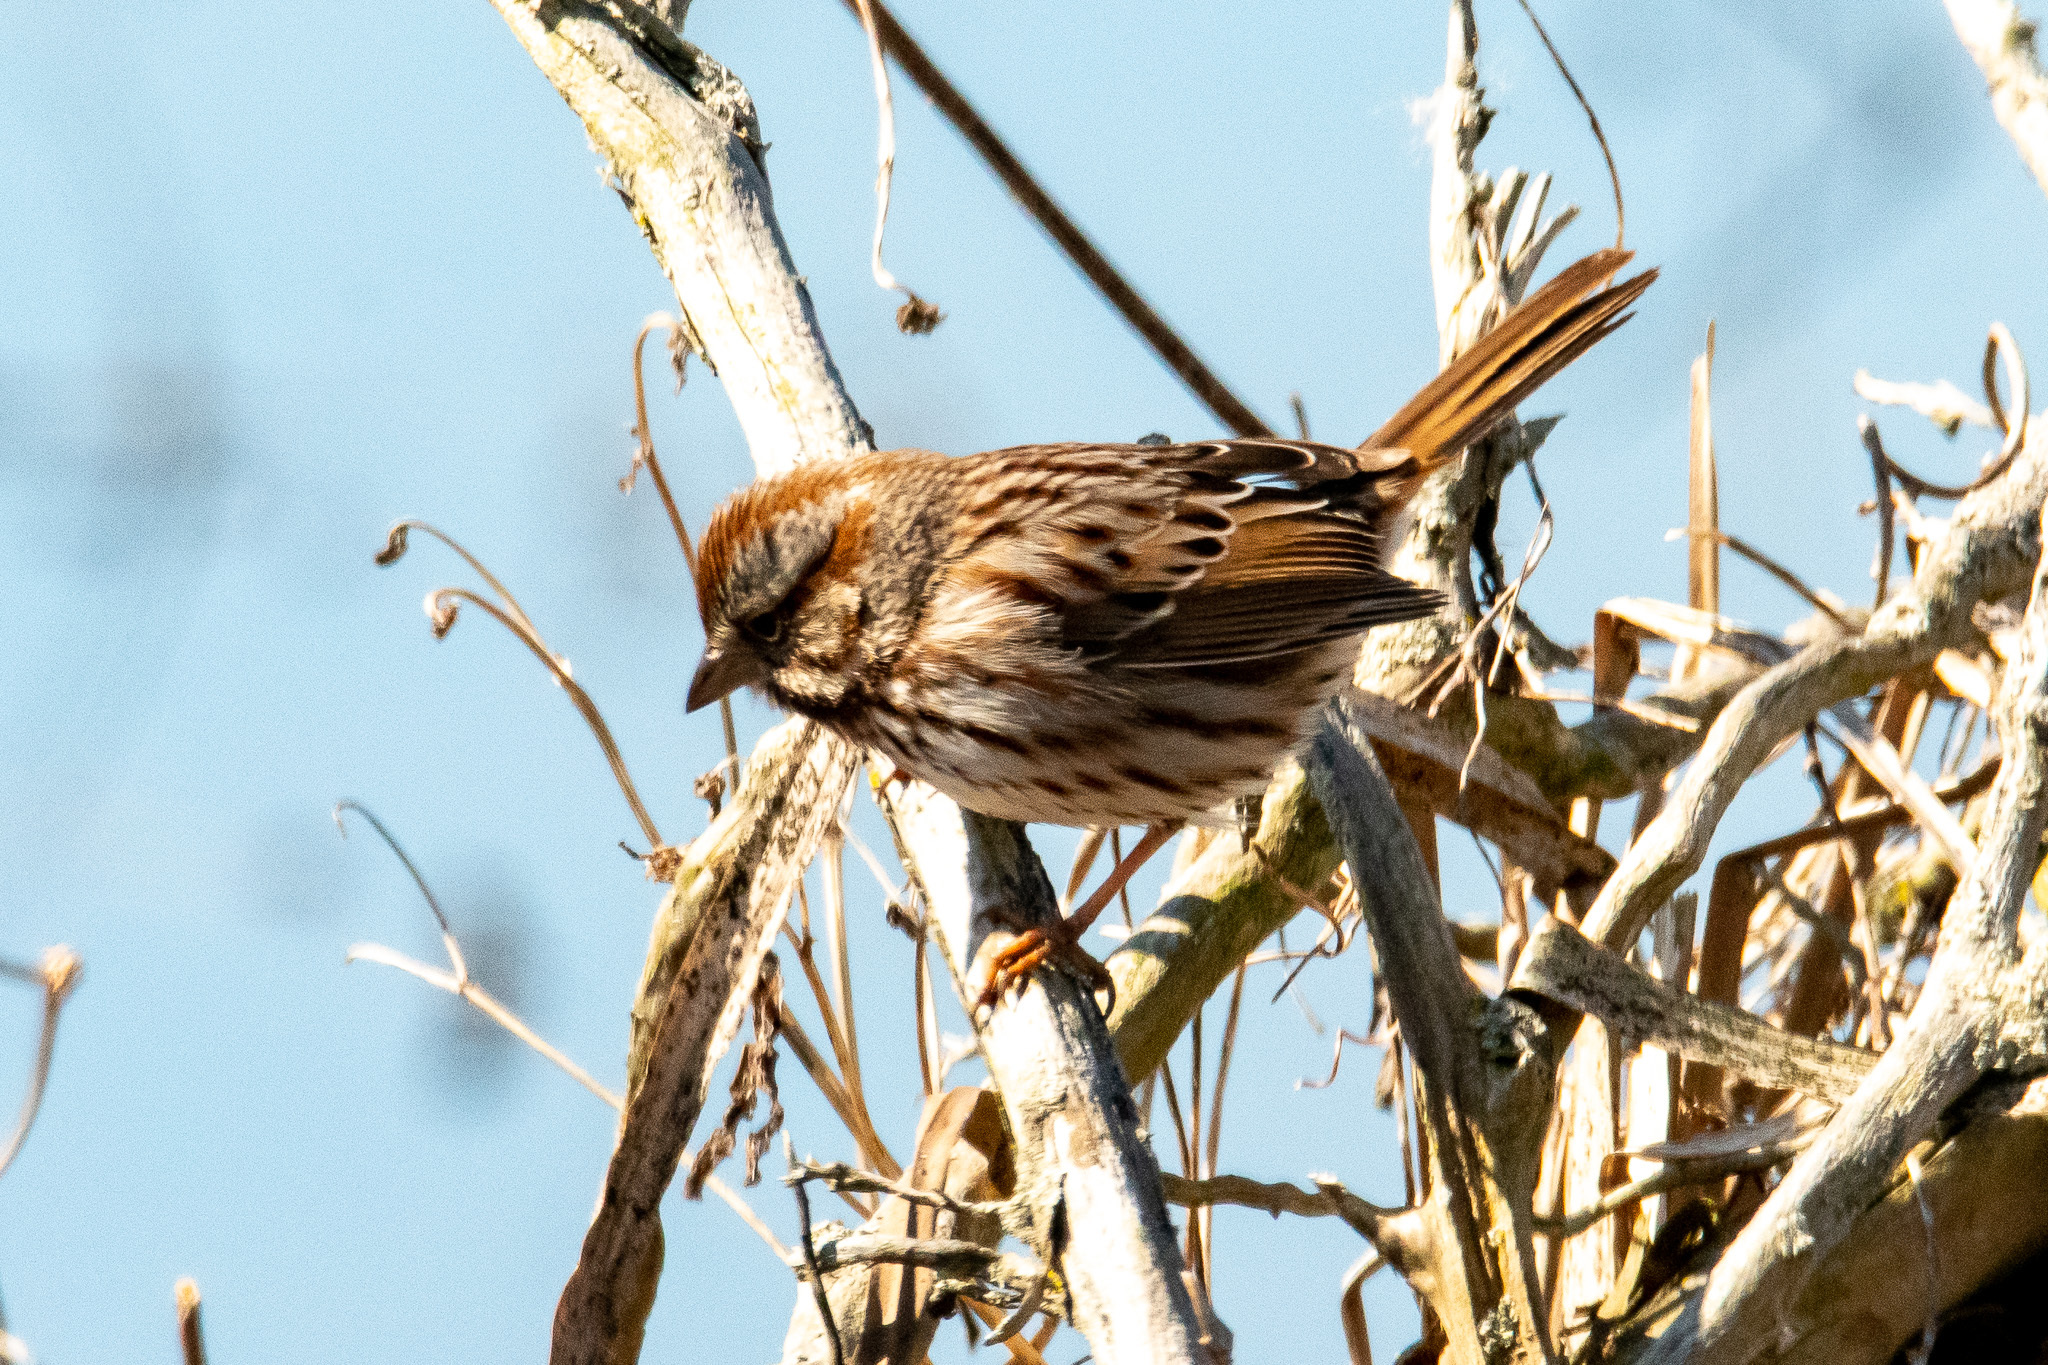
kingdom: Animalia
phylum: Chordata
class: Aves
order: Passeriformes
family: Passerellidae
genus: Melospiza
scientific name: Melospiza melodia
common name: Song sparrow
